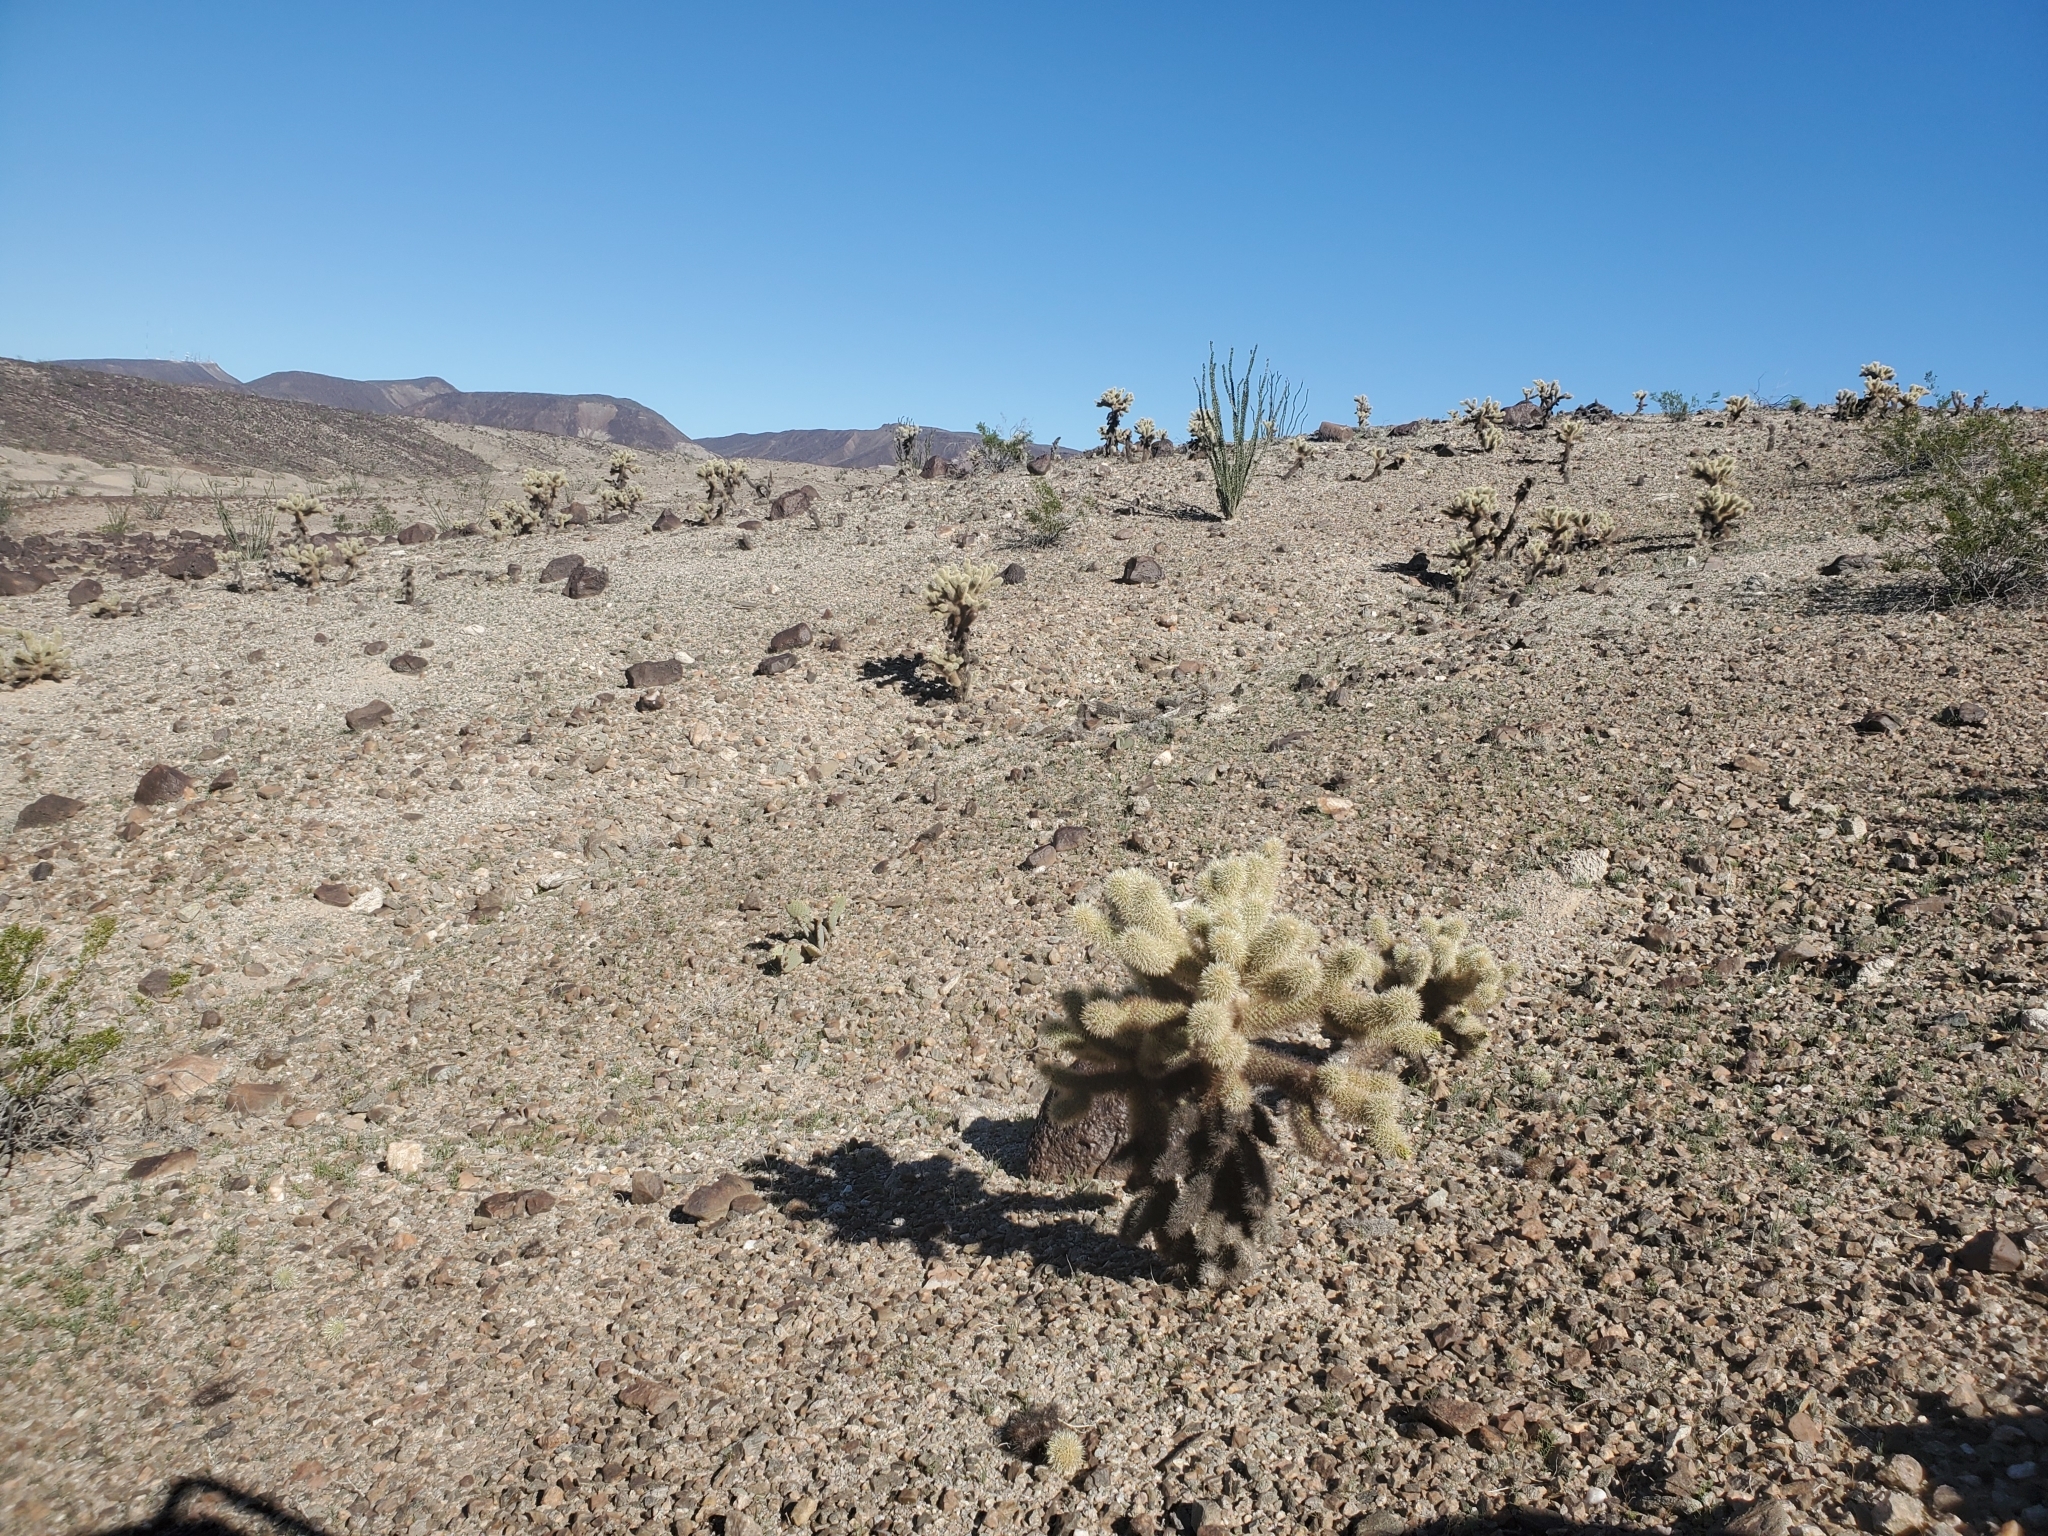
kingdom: Plantae
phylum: Tracheophyta
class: Magnoliopsida
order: Caryophyllales
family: Cactaceae
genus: Cylindropuntia
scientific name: Cylindropuntia fosbergii
